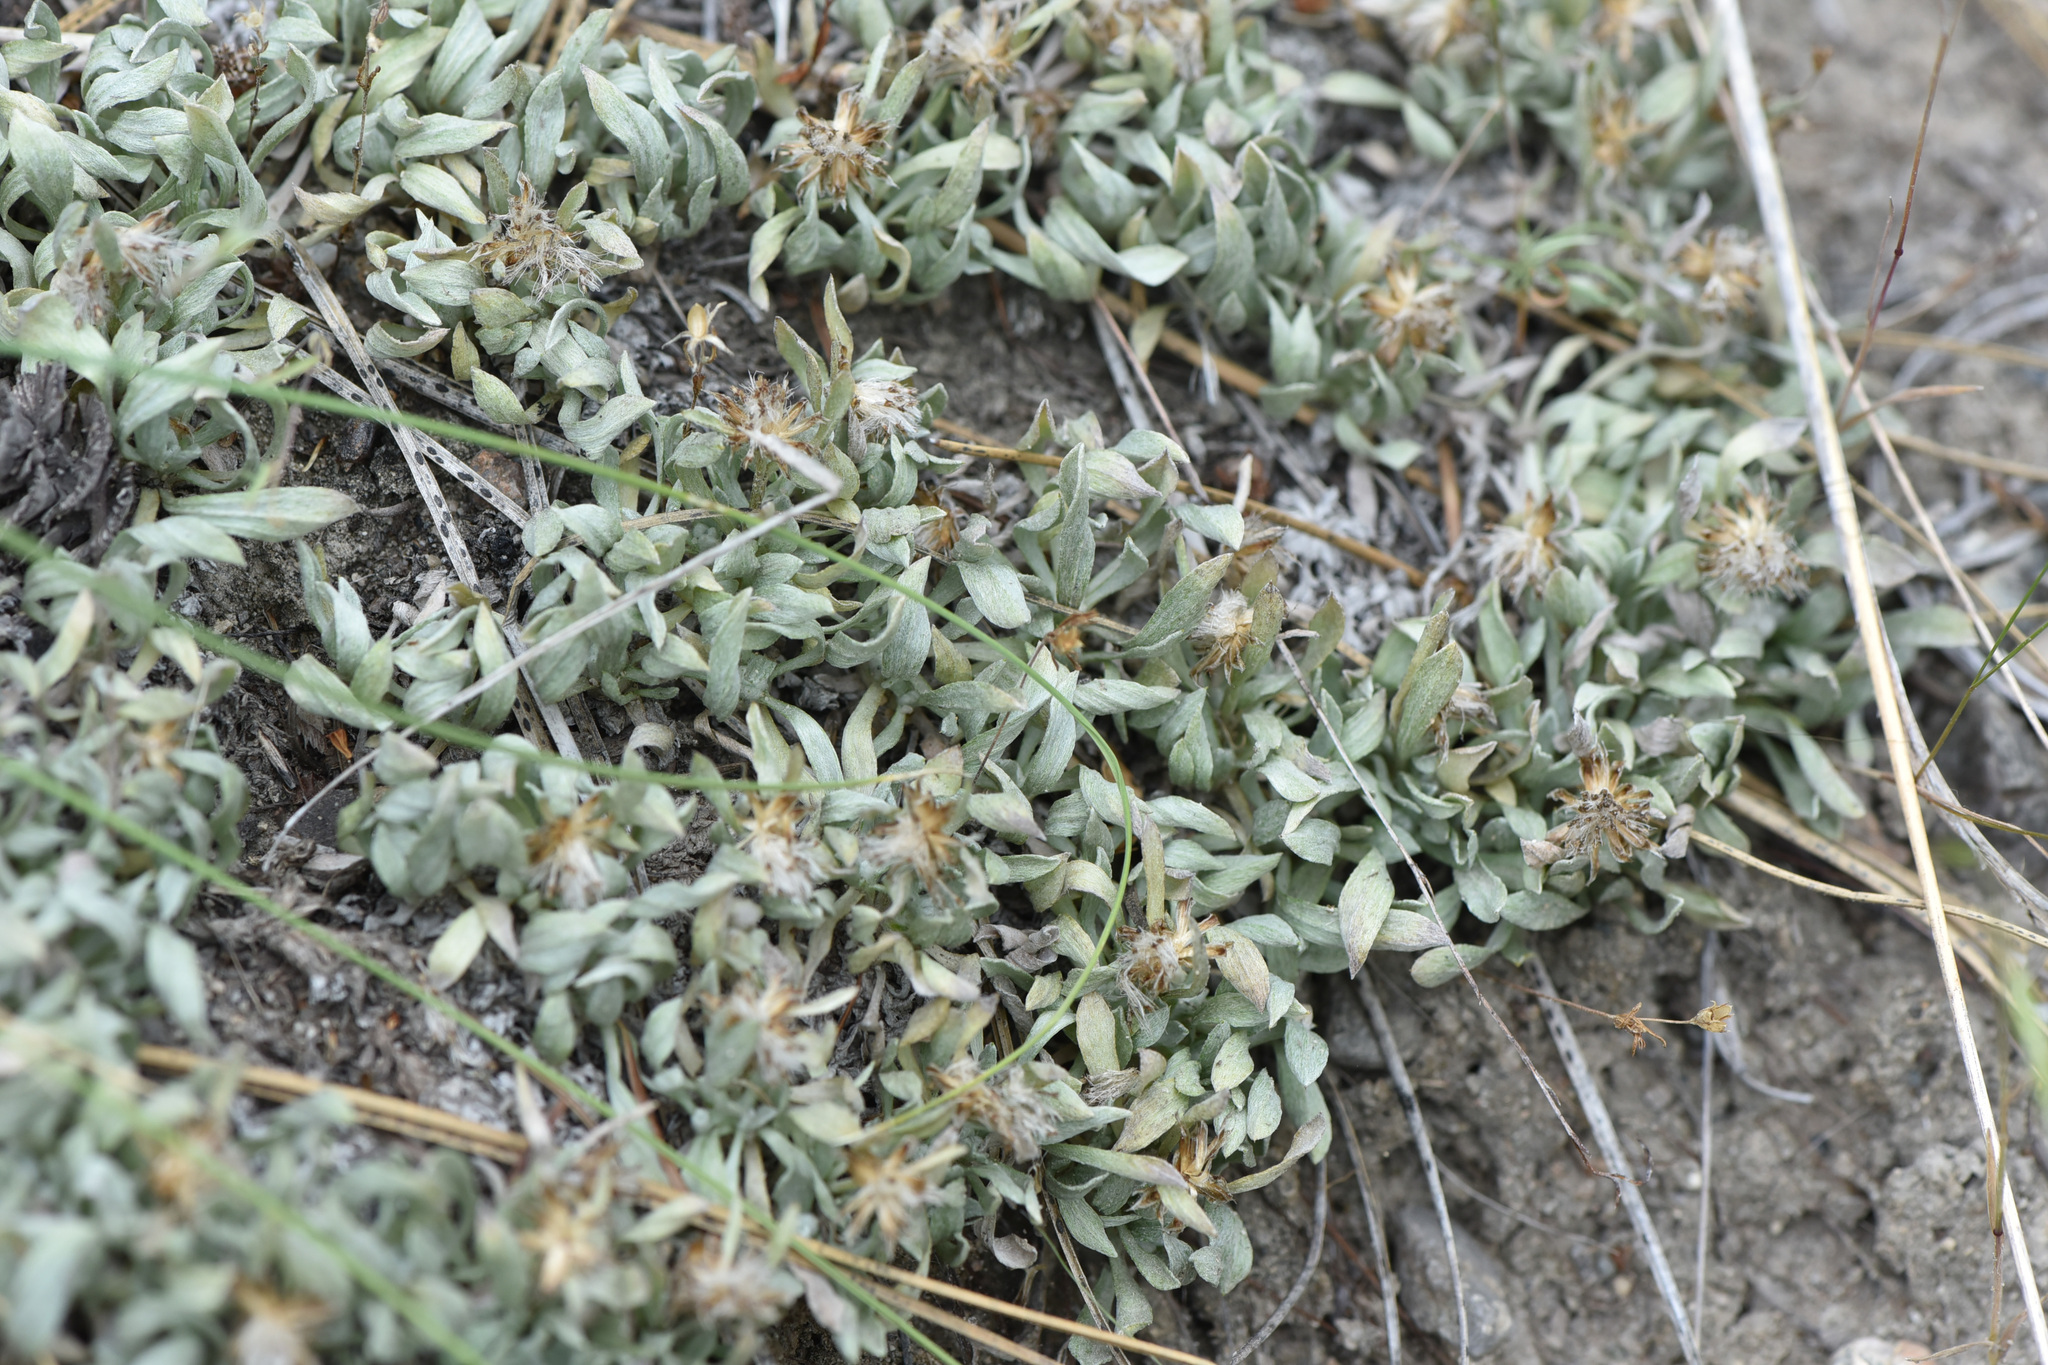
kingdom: Plantae
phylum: Tracheophyta
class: Magnoliopsida
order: Asterales
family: Asteraceae
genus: Antennaria
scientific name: Antennaria dimorpha
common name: Cushion pussytoes
